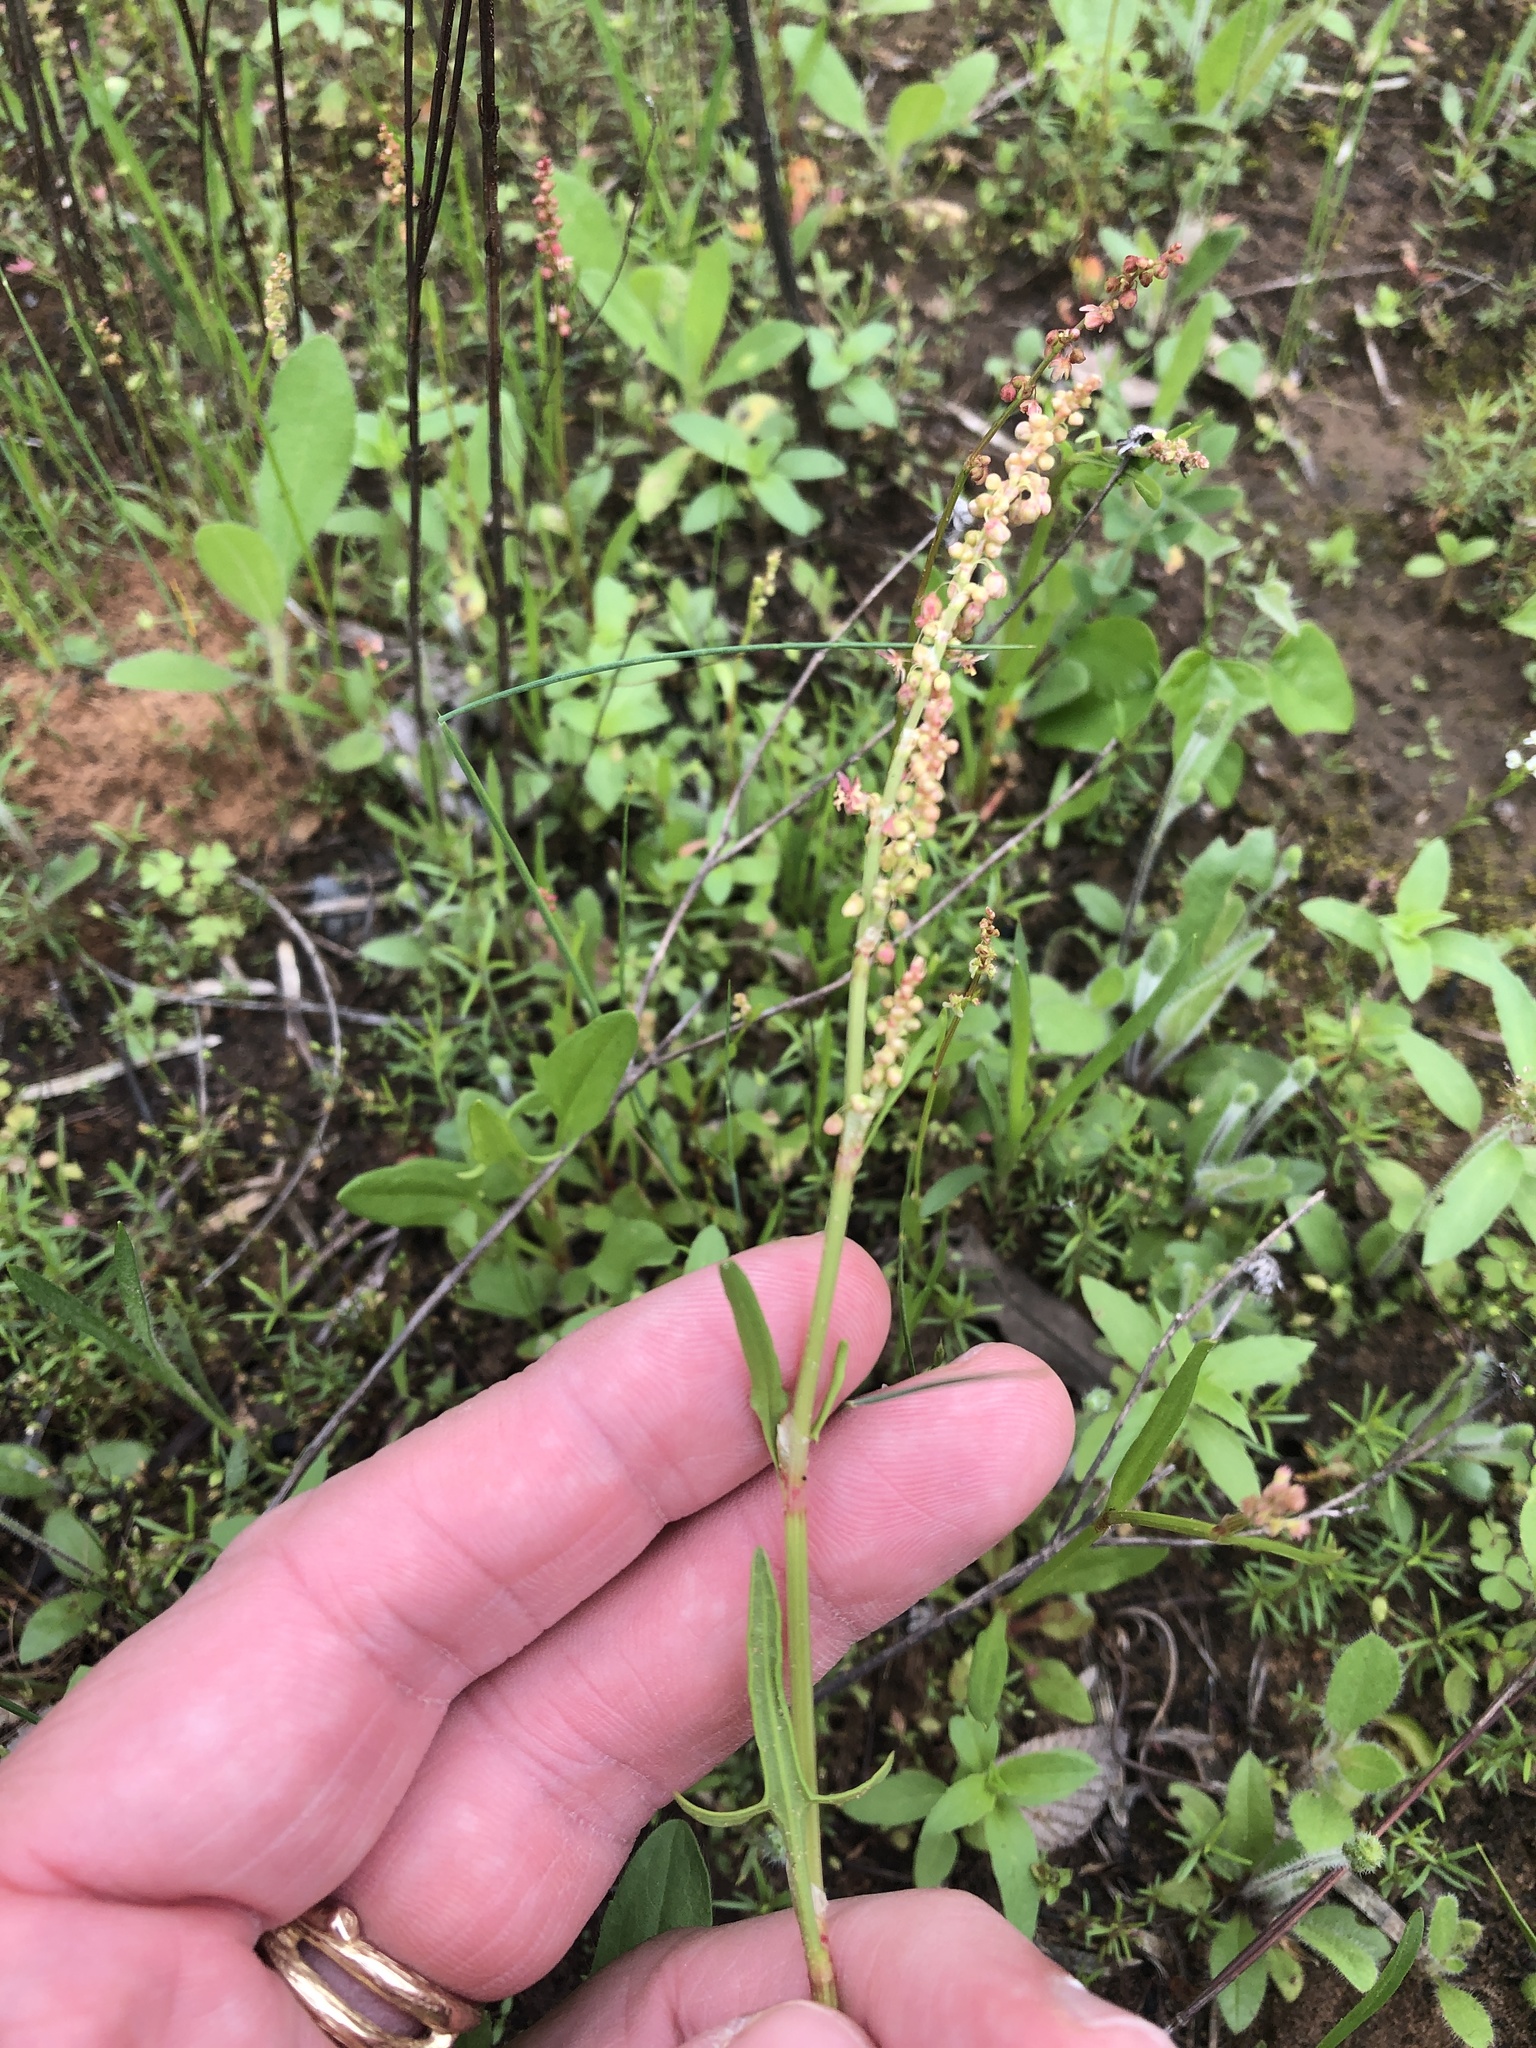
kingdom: Plantae
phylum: Tracheophyta
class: Magnoliopsida
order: Caryophyllales
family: Polygonaceae
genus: Rumex
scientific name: Rumex hastatulus
